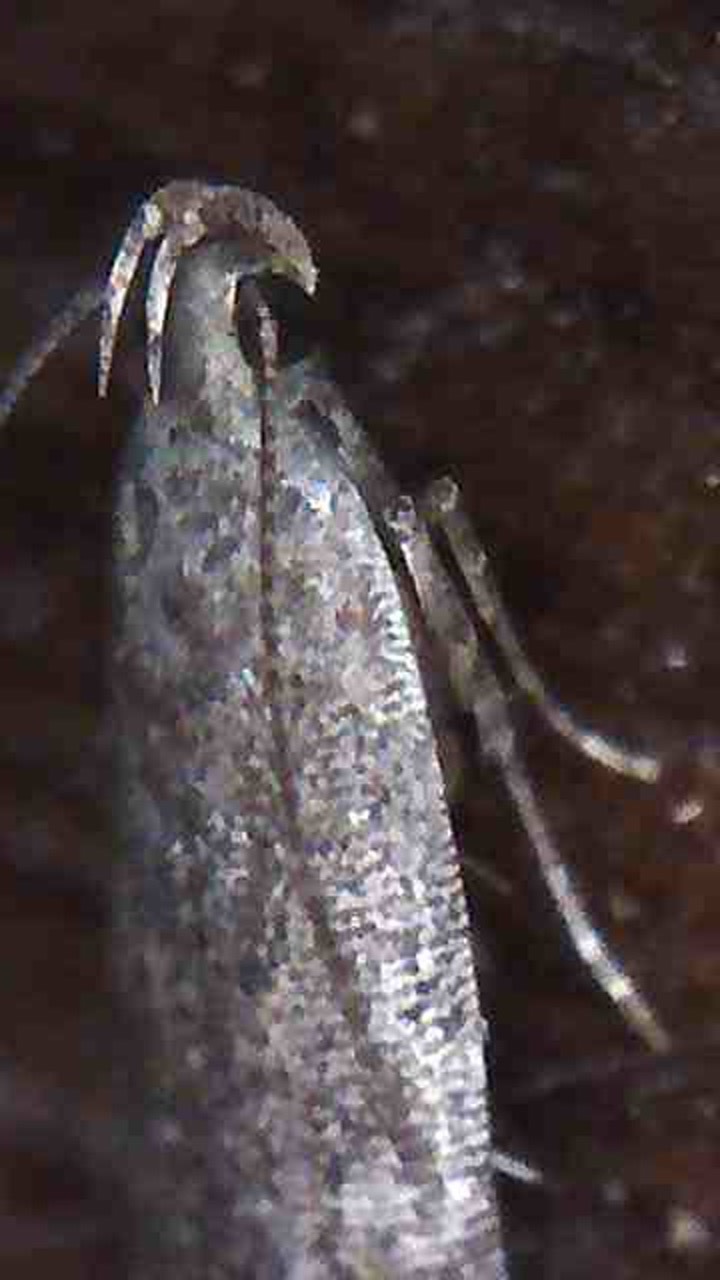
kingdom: Animalia
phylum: Arthropoda
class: Insecta
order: Lepidoptera
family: Gelechiidae
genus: Bilobata
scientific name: Bilobata subsecivella
